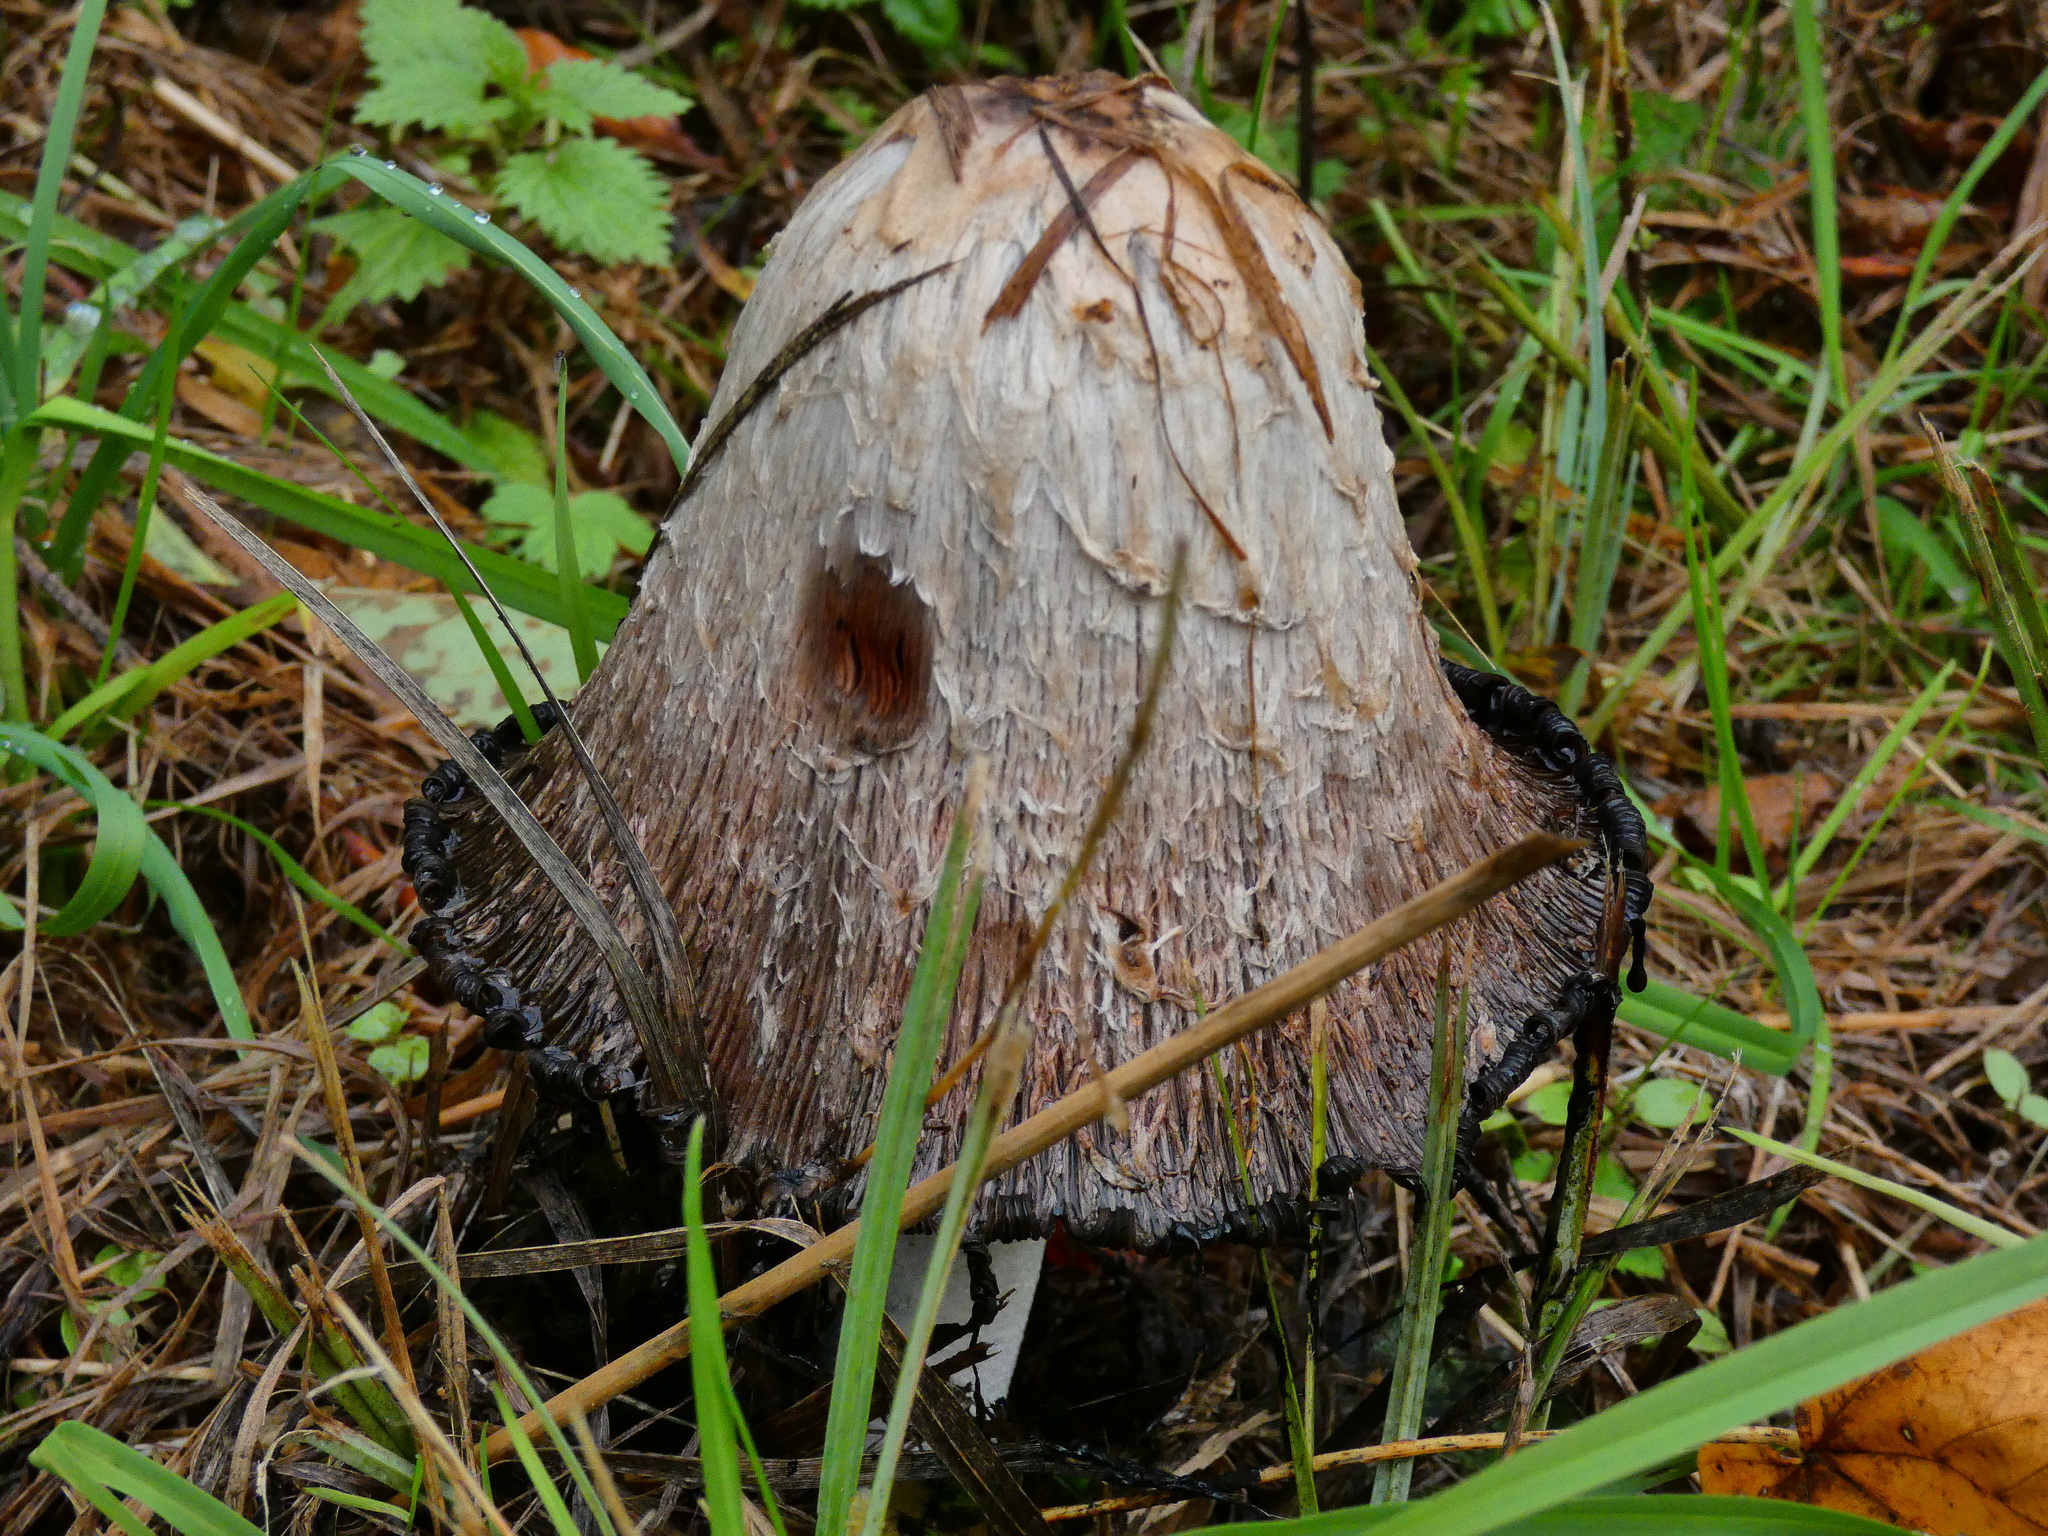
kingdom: Fungi
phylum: Basidiomycota
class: Agaricomycetes
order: Agaricales
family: Agaricaceae
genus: Coprinus
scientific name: Coprinus comatus
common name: Lawyer's wig
